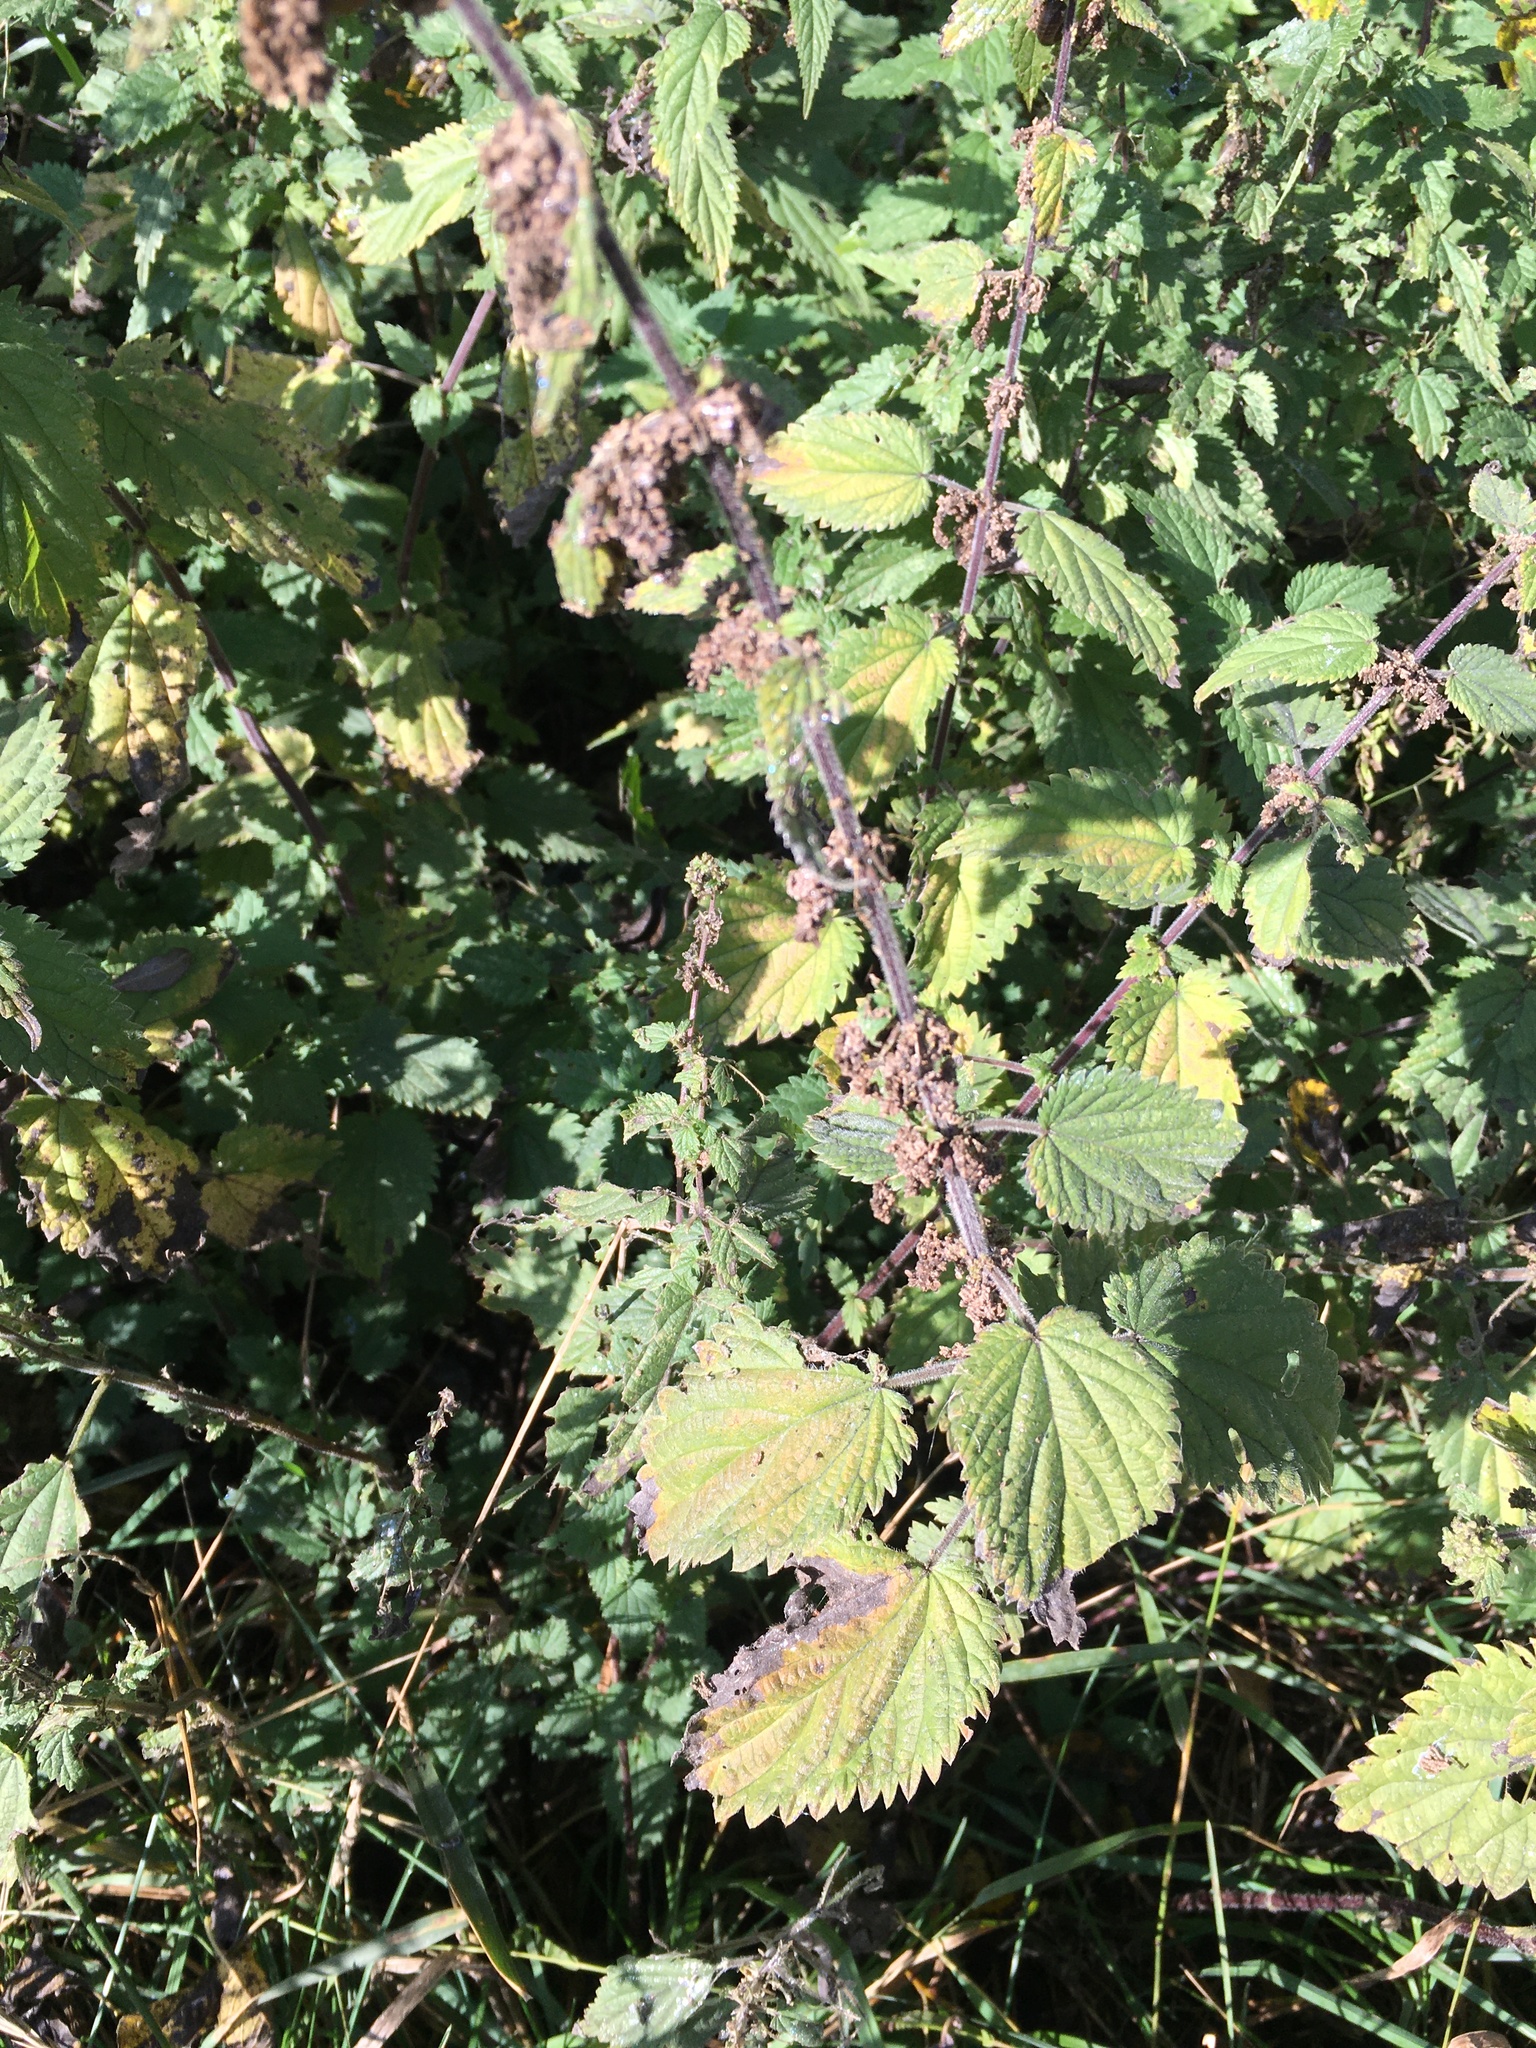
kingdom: Plantae
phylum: Tracheophyta
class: Magnoliopsida
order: Rosales
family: Urticaceae
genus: Urtica
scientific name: Urtica dioica
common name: Common nettle
